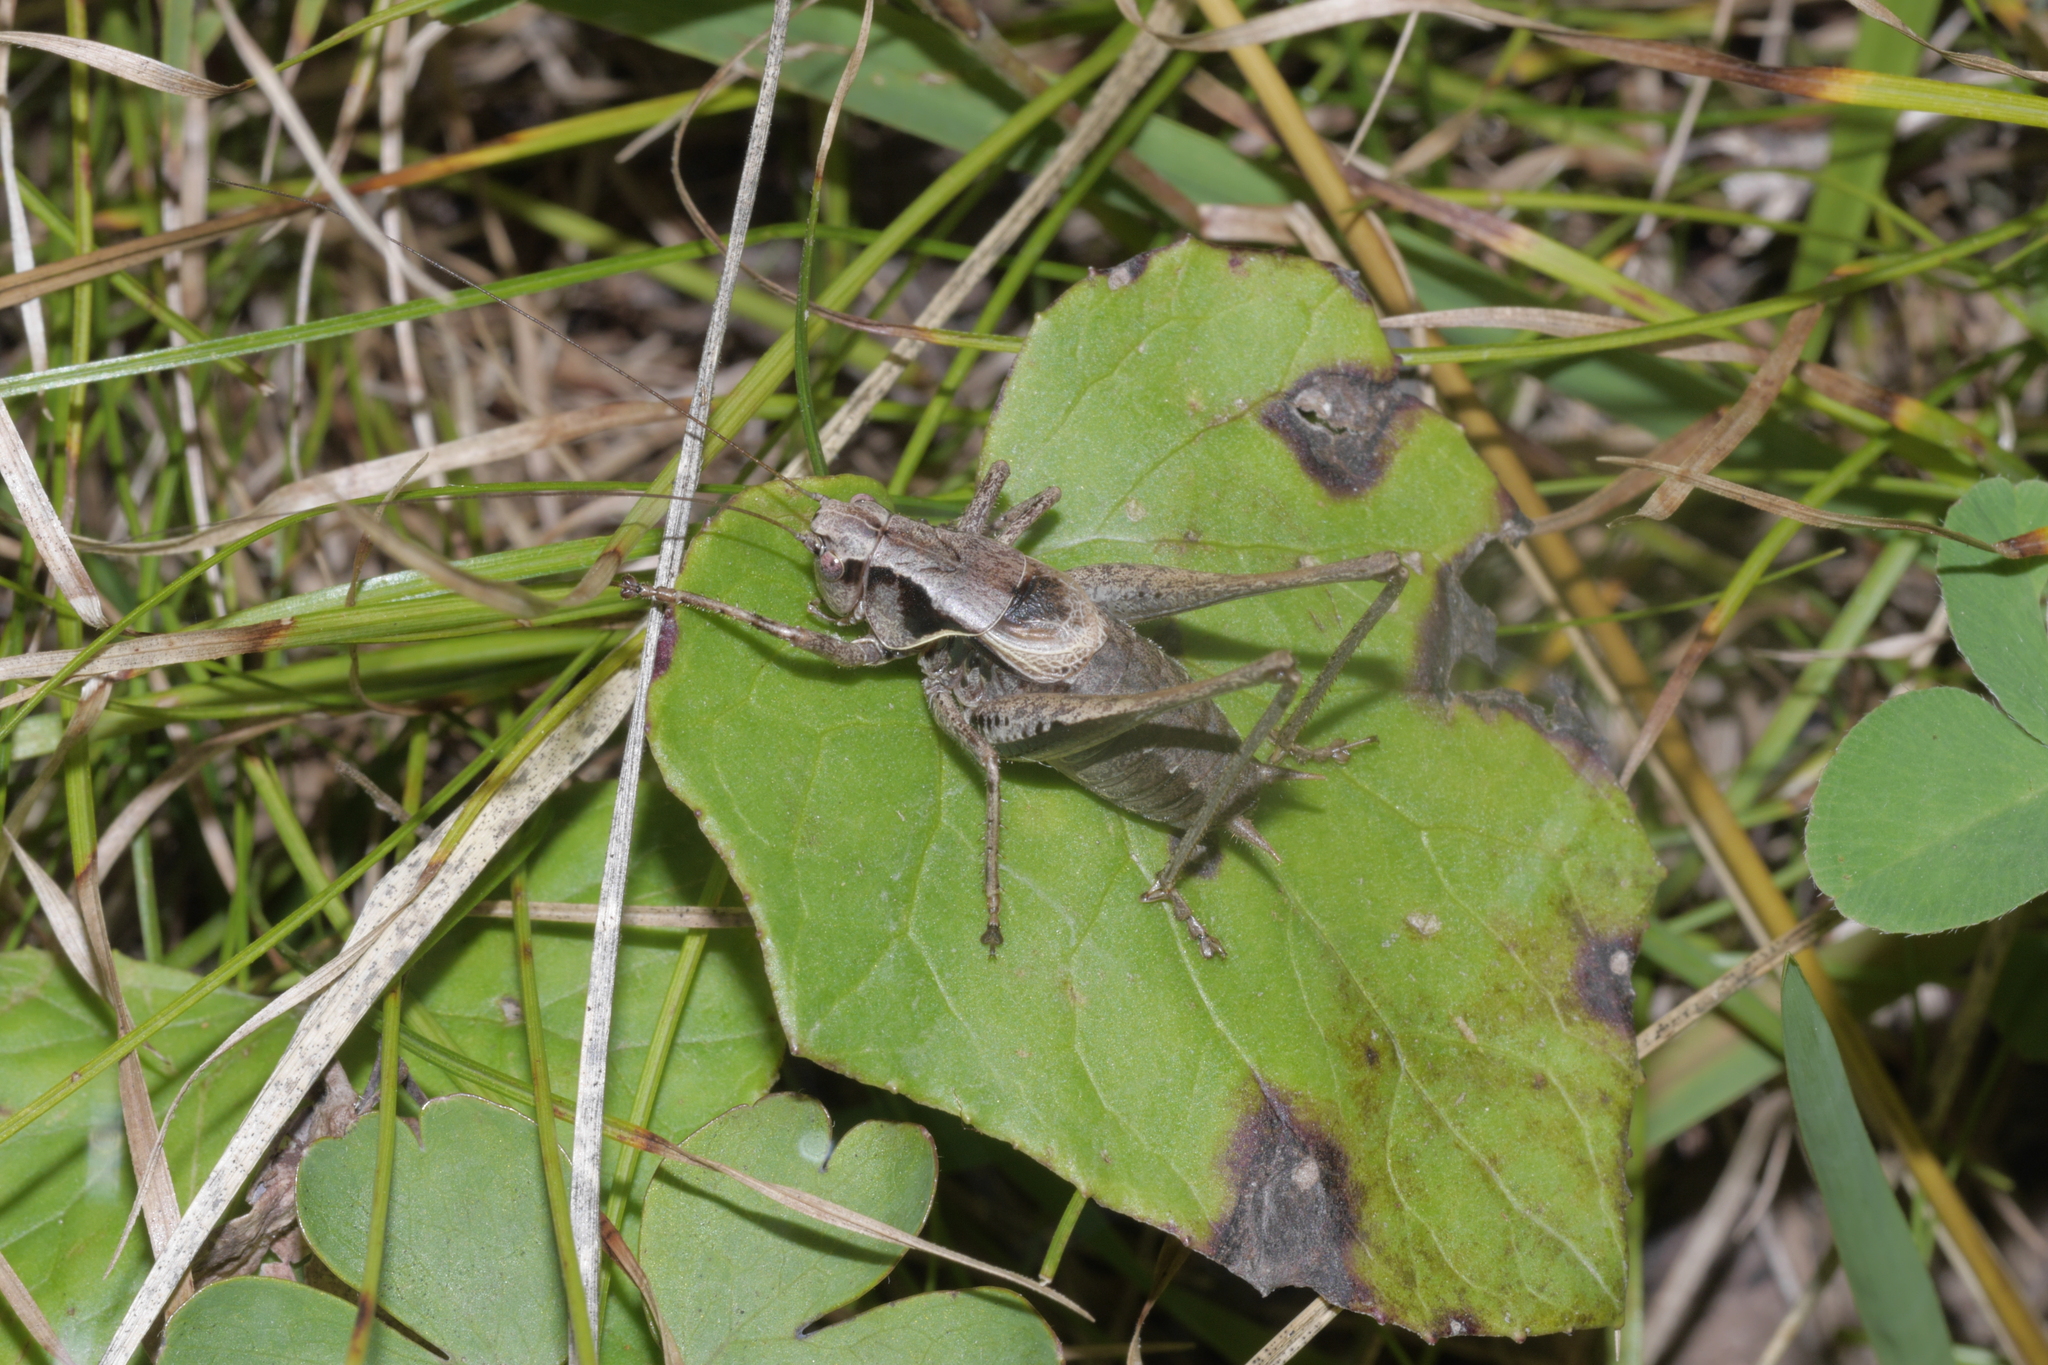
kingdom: Animalia
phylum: Arthropoda
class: Insecta
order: Orthoptera
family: Tettigoniidae
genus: Pholidoptera
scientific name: Pholidoptera griseoaptera
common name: Dark bush-cricket
